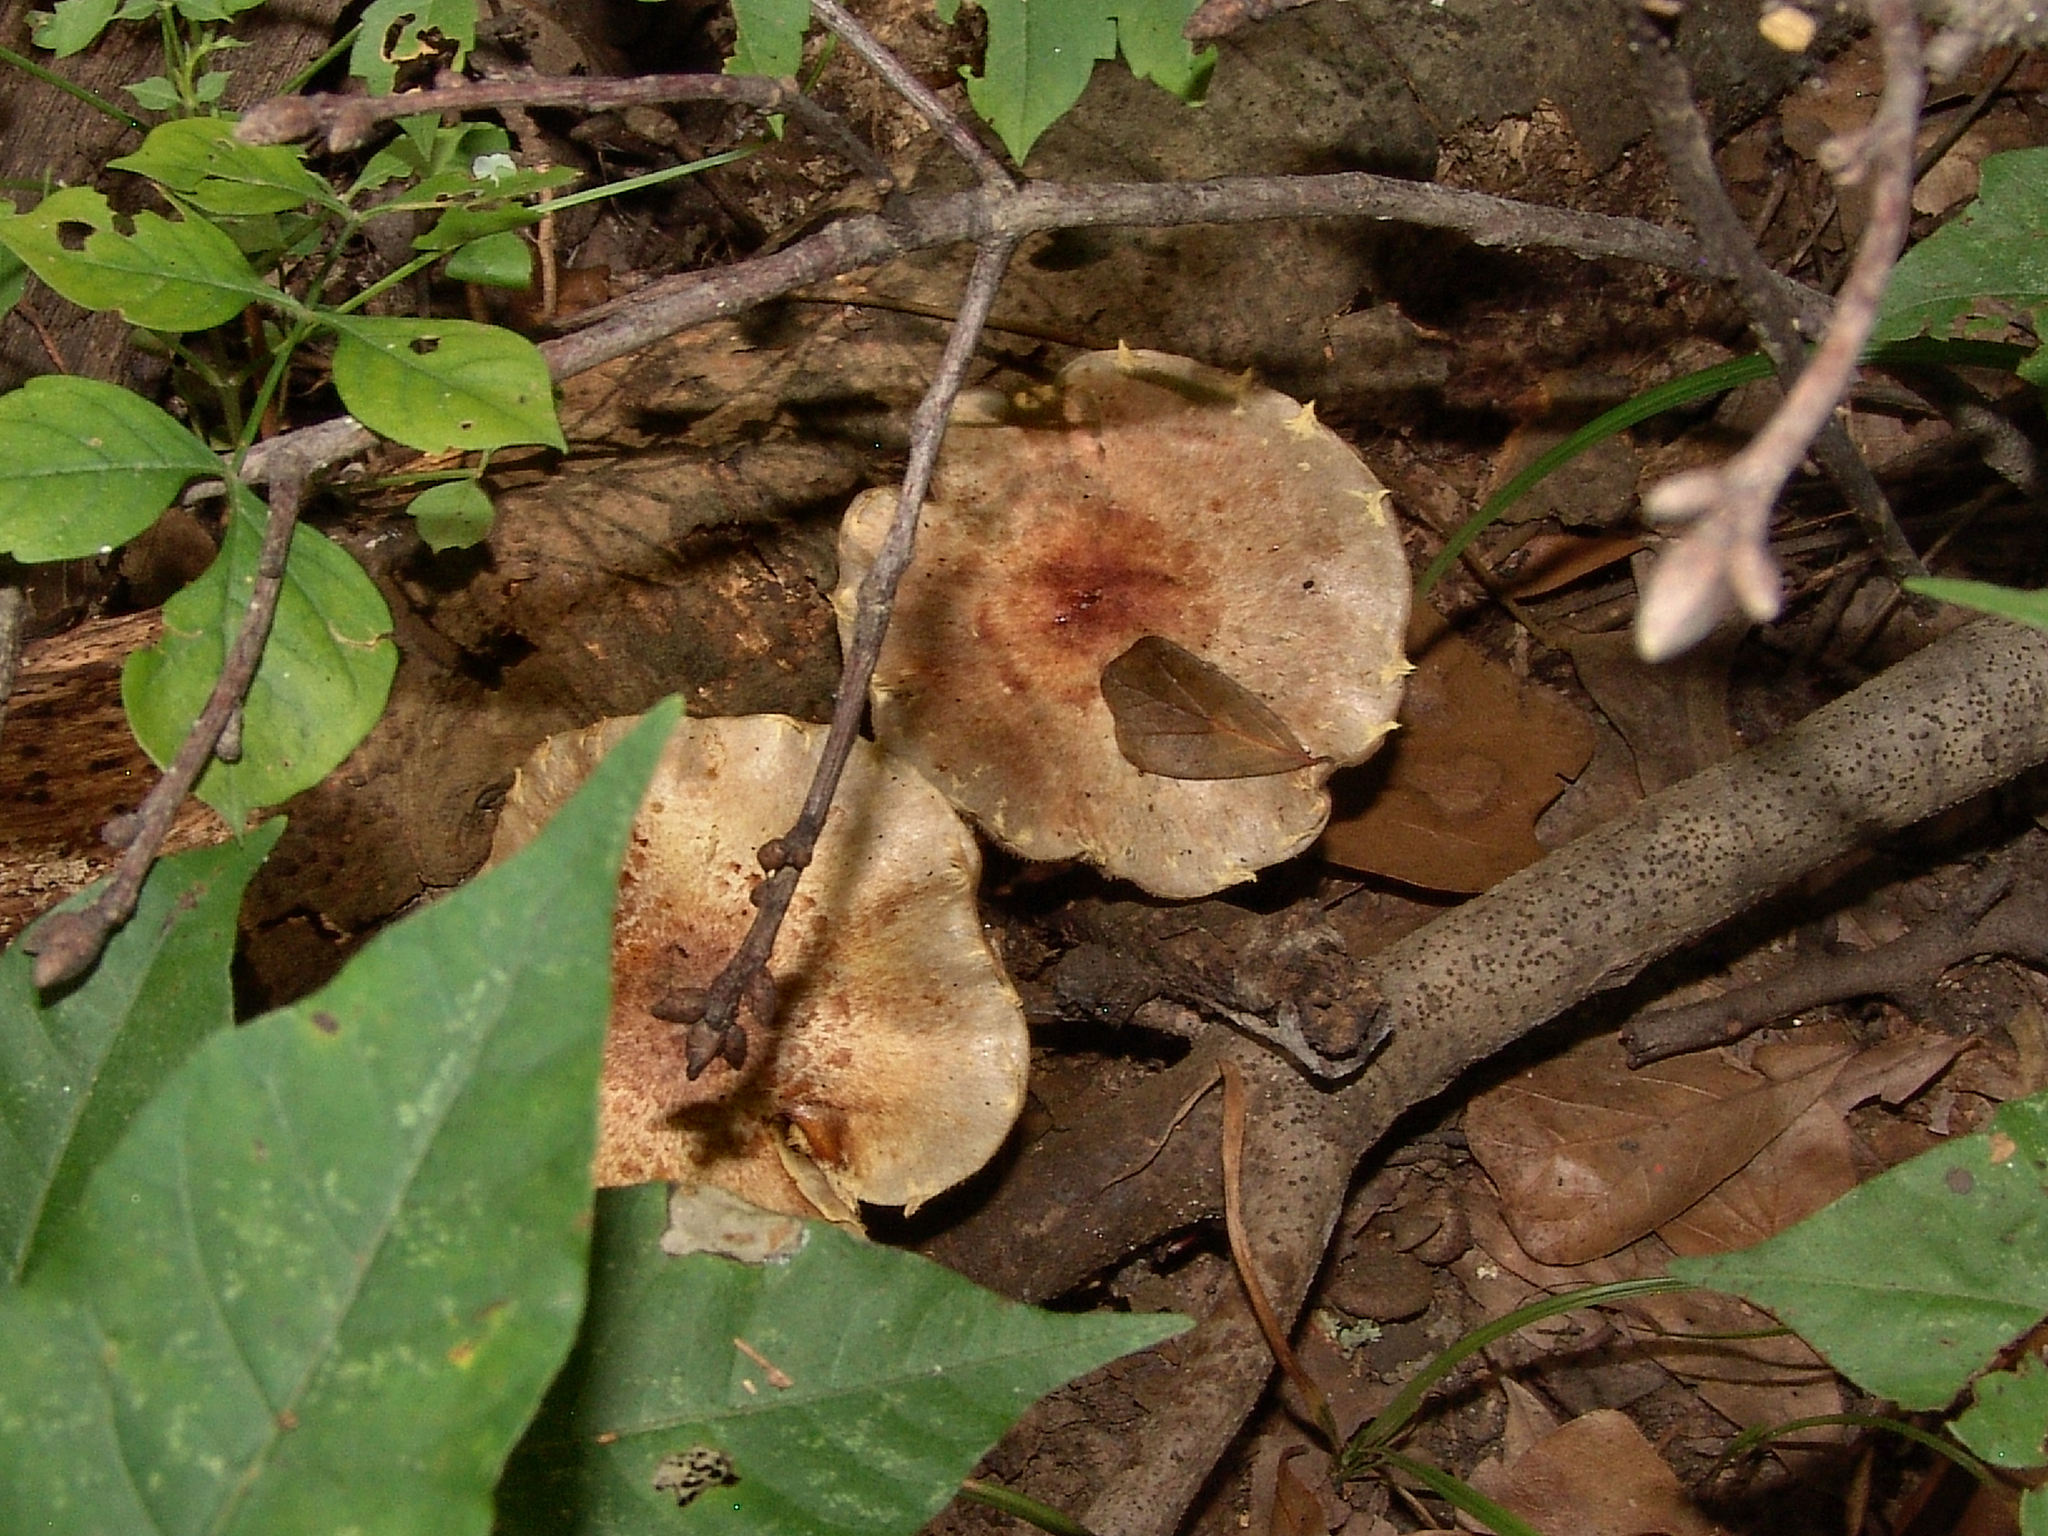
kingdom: Fungi
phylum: Basidiomycota
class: Agaricomycetes
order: Agaricales
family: Strophariaceae
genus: Pholiota
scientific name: Pholiota polychroa
